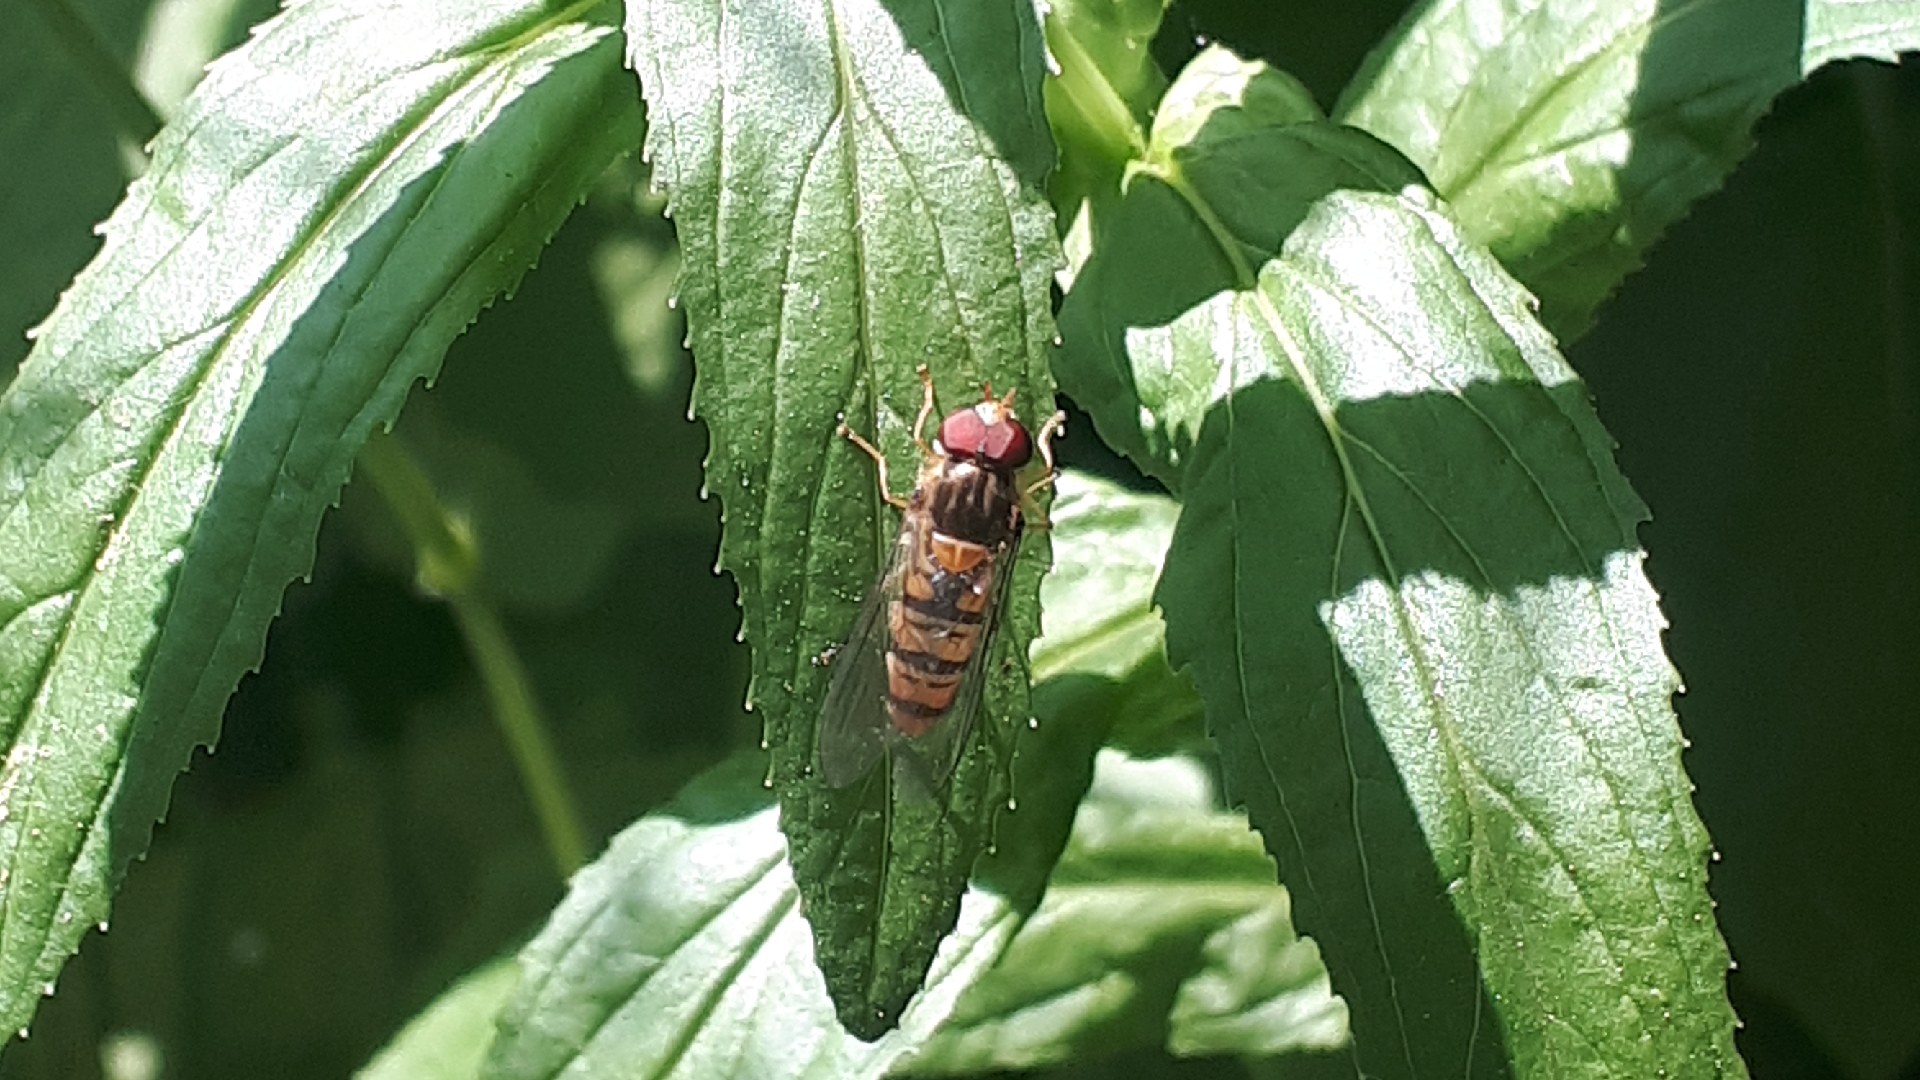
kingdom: Animalia
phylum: Arthropoda
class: Insecta
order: Diptera
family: Syrphidae
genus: Episyrphus
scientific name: Episyrphus balteatus
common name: Marmalade hoverfly
